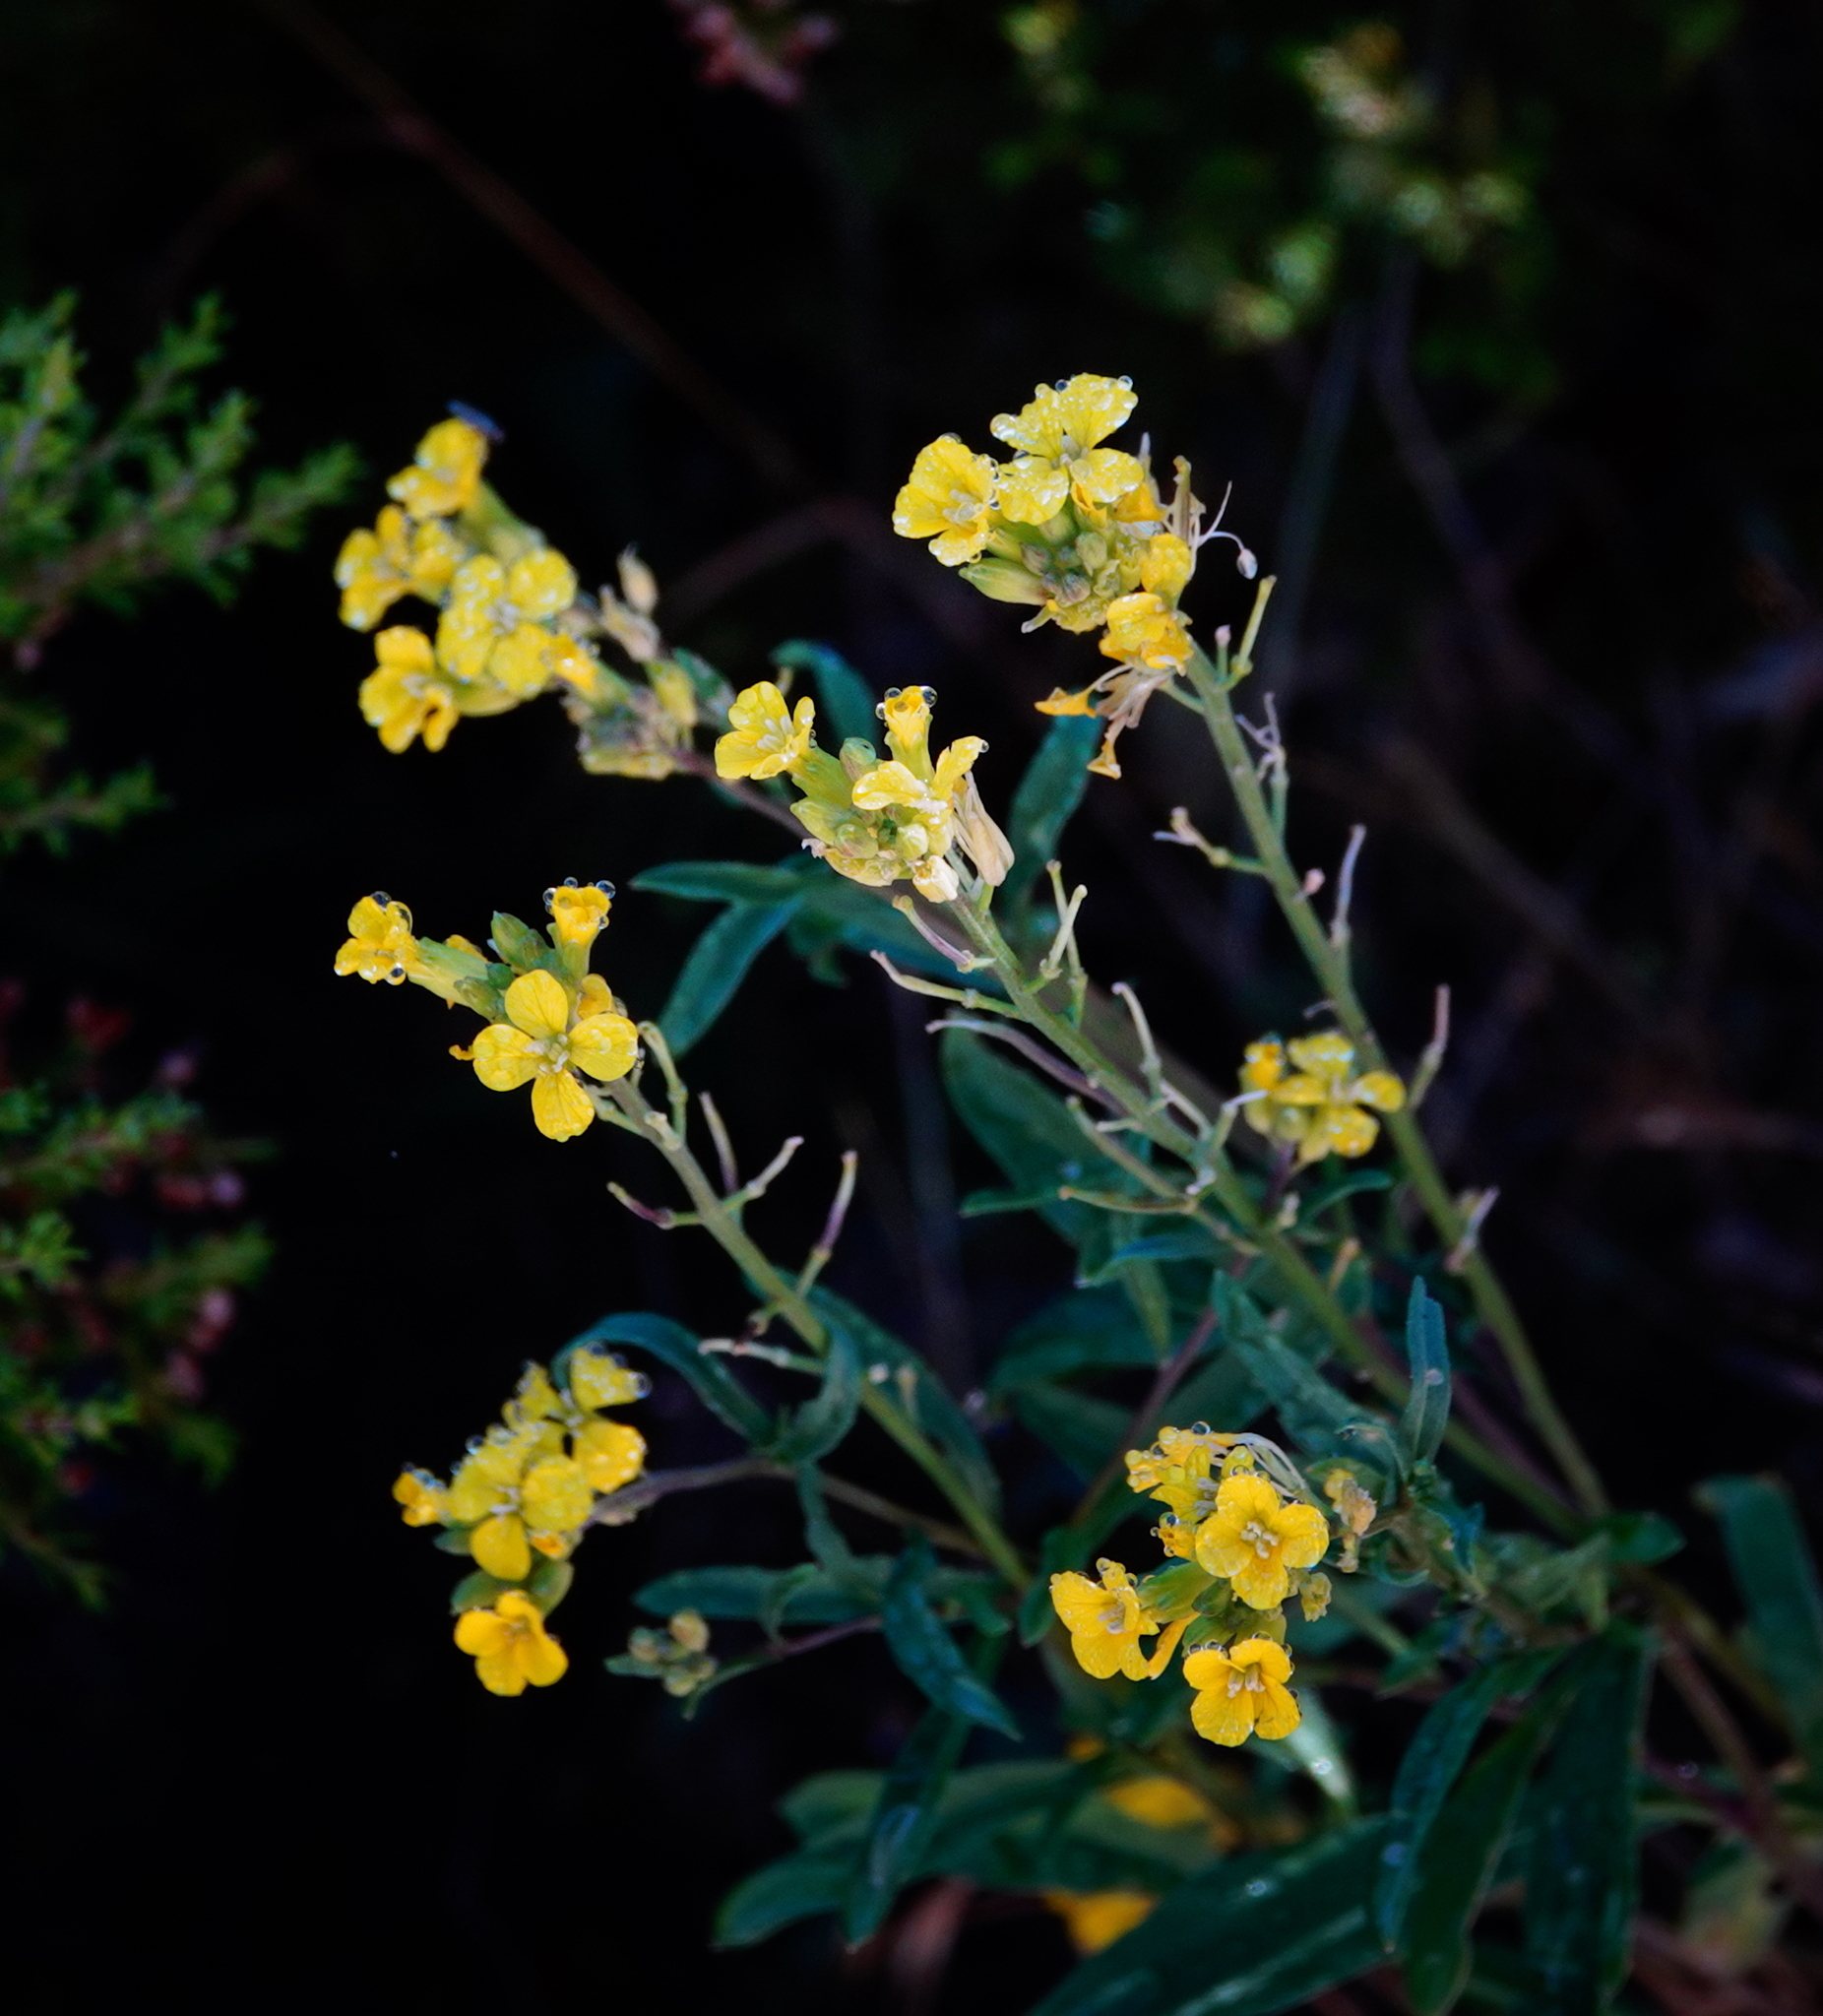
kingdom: Plantae
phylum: Tracheophyta
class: Magnoliopsida
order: Brassicales
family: Brassicaceae
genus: Erysimum
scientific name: Erysimum nevadense
